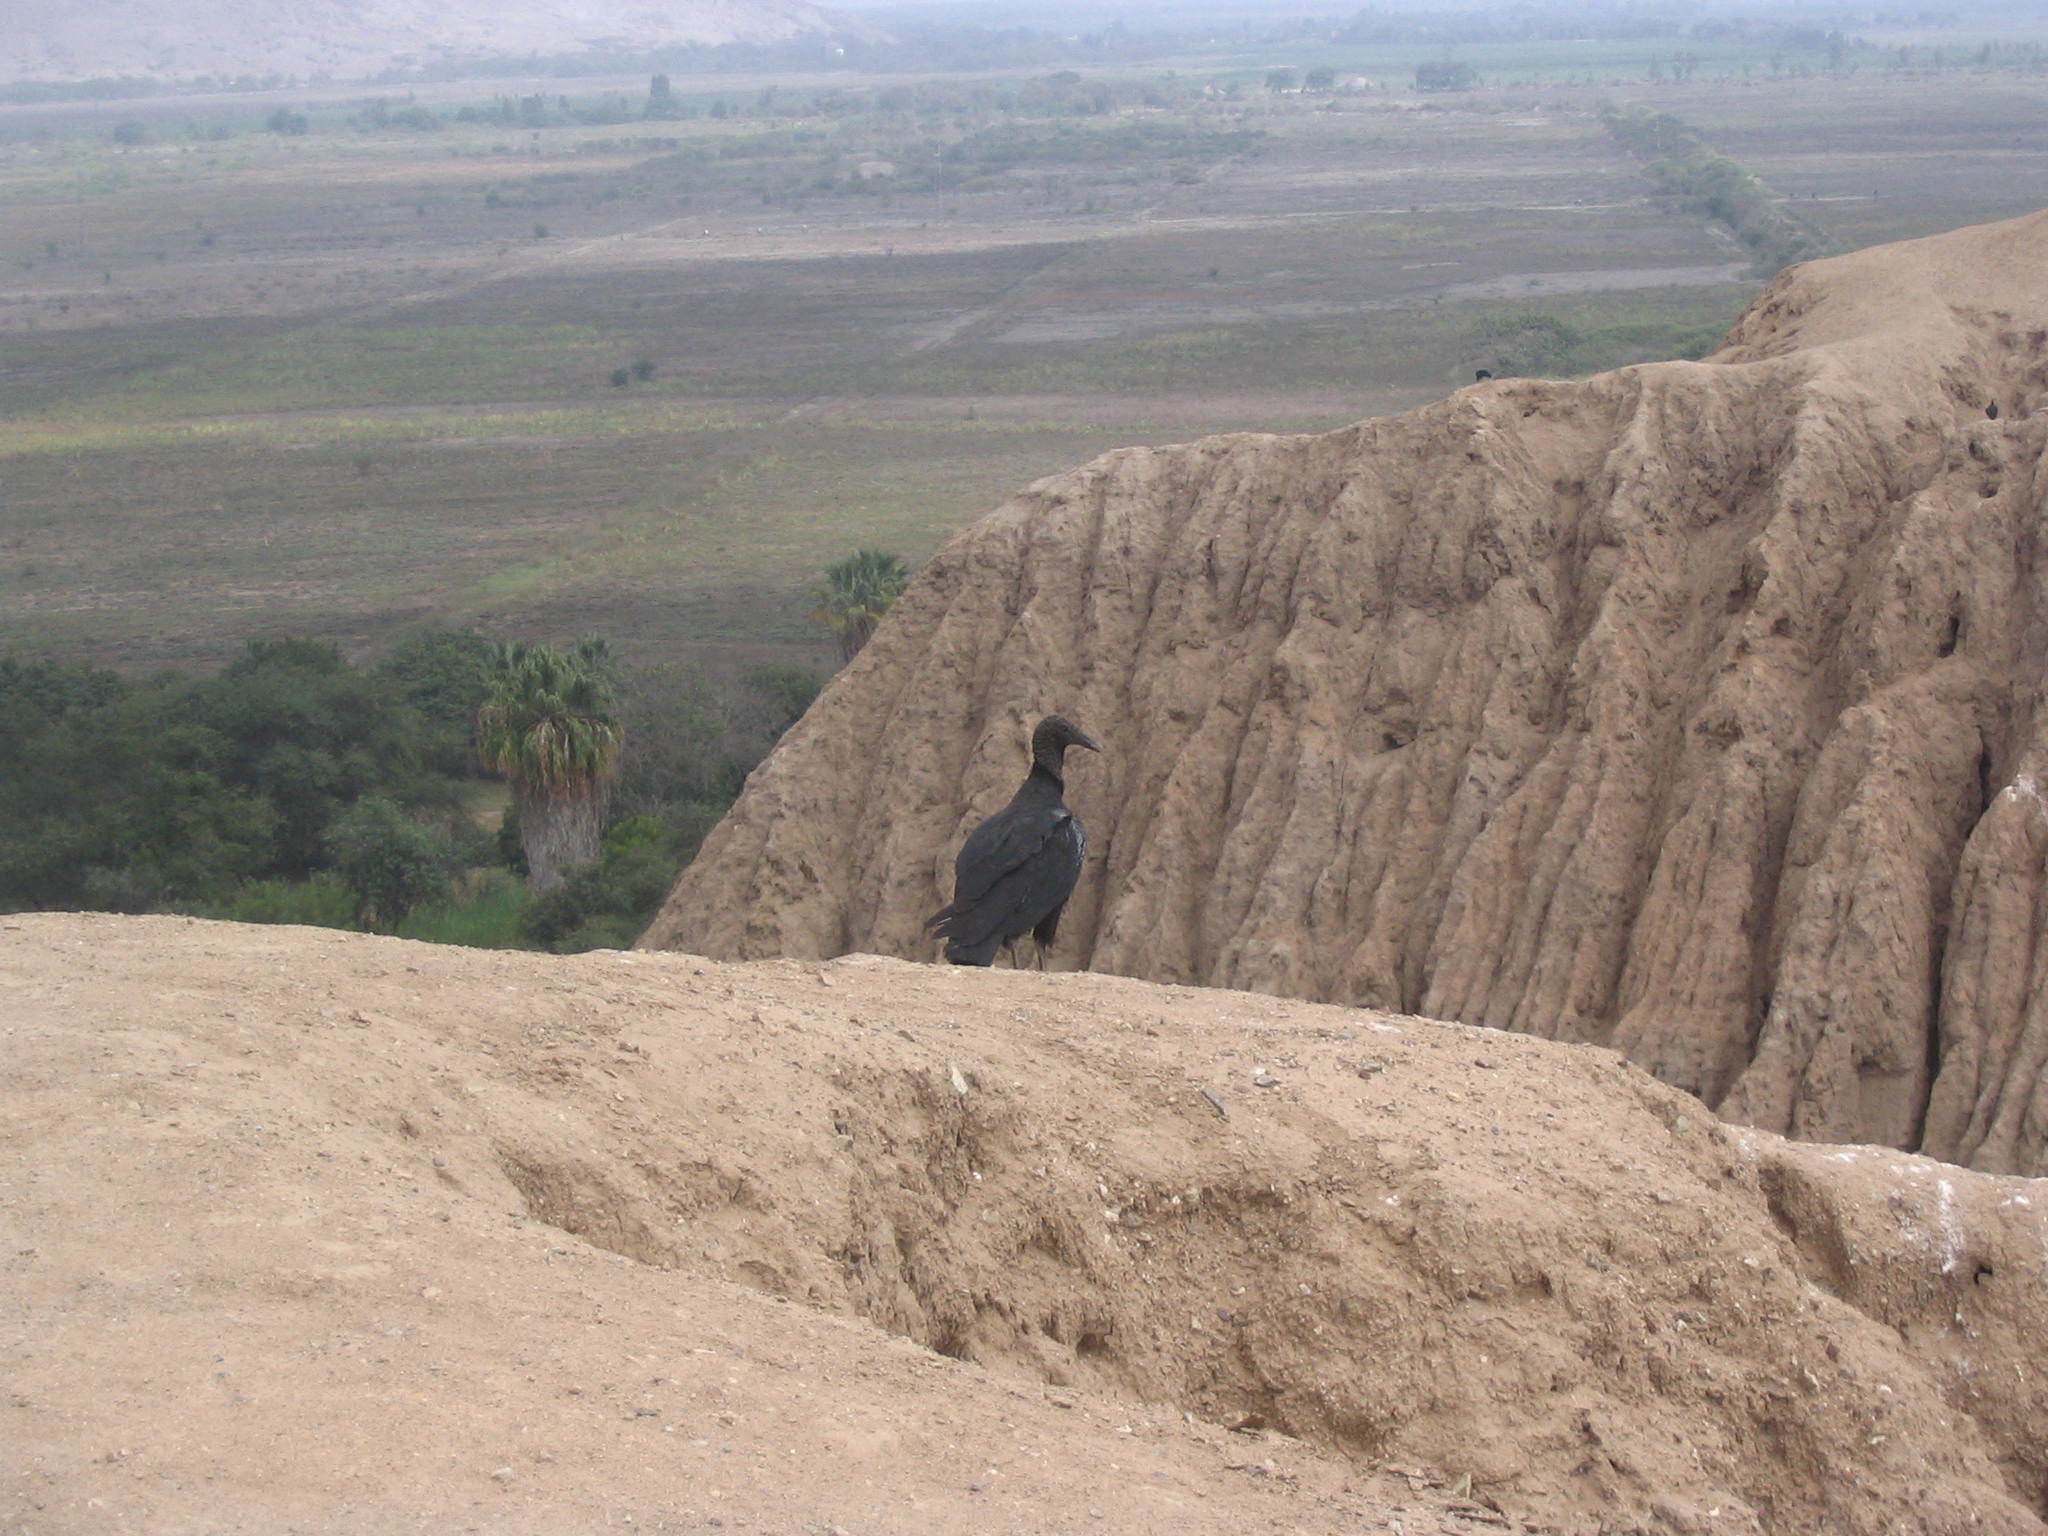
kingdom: Animalia
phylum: Chordata
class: Aves
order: Accipitriformes
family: Cathartidae
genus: Coragyps
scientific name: Coragyps atratus
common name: Black vulture
